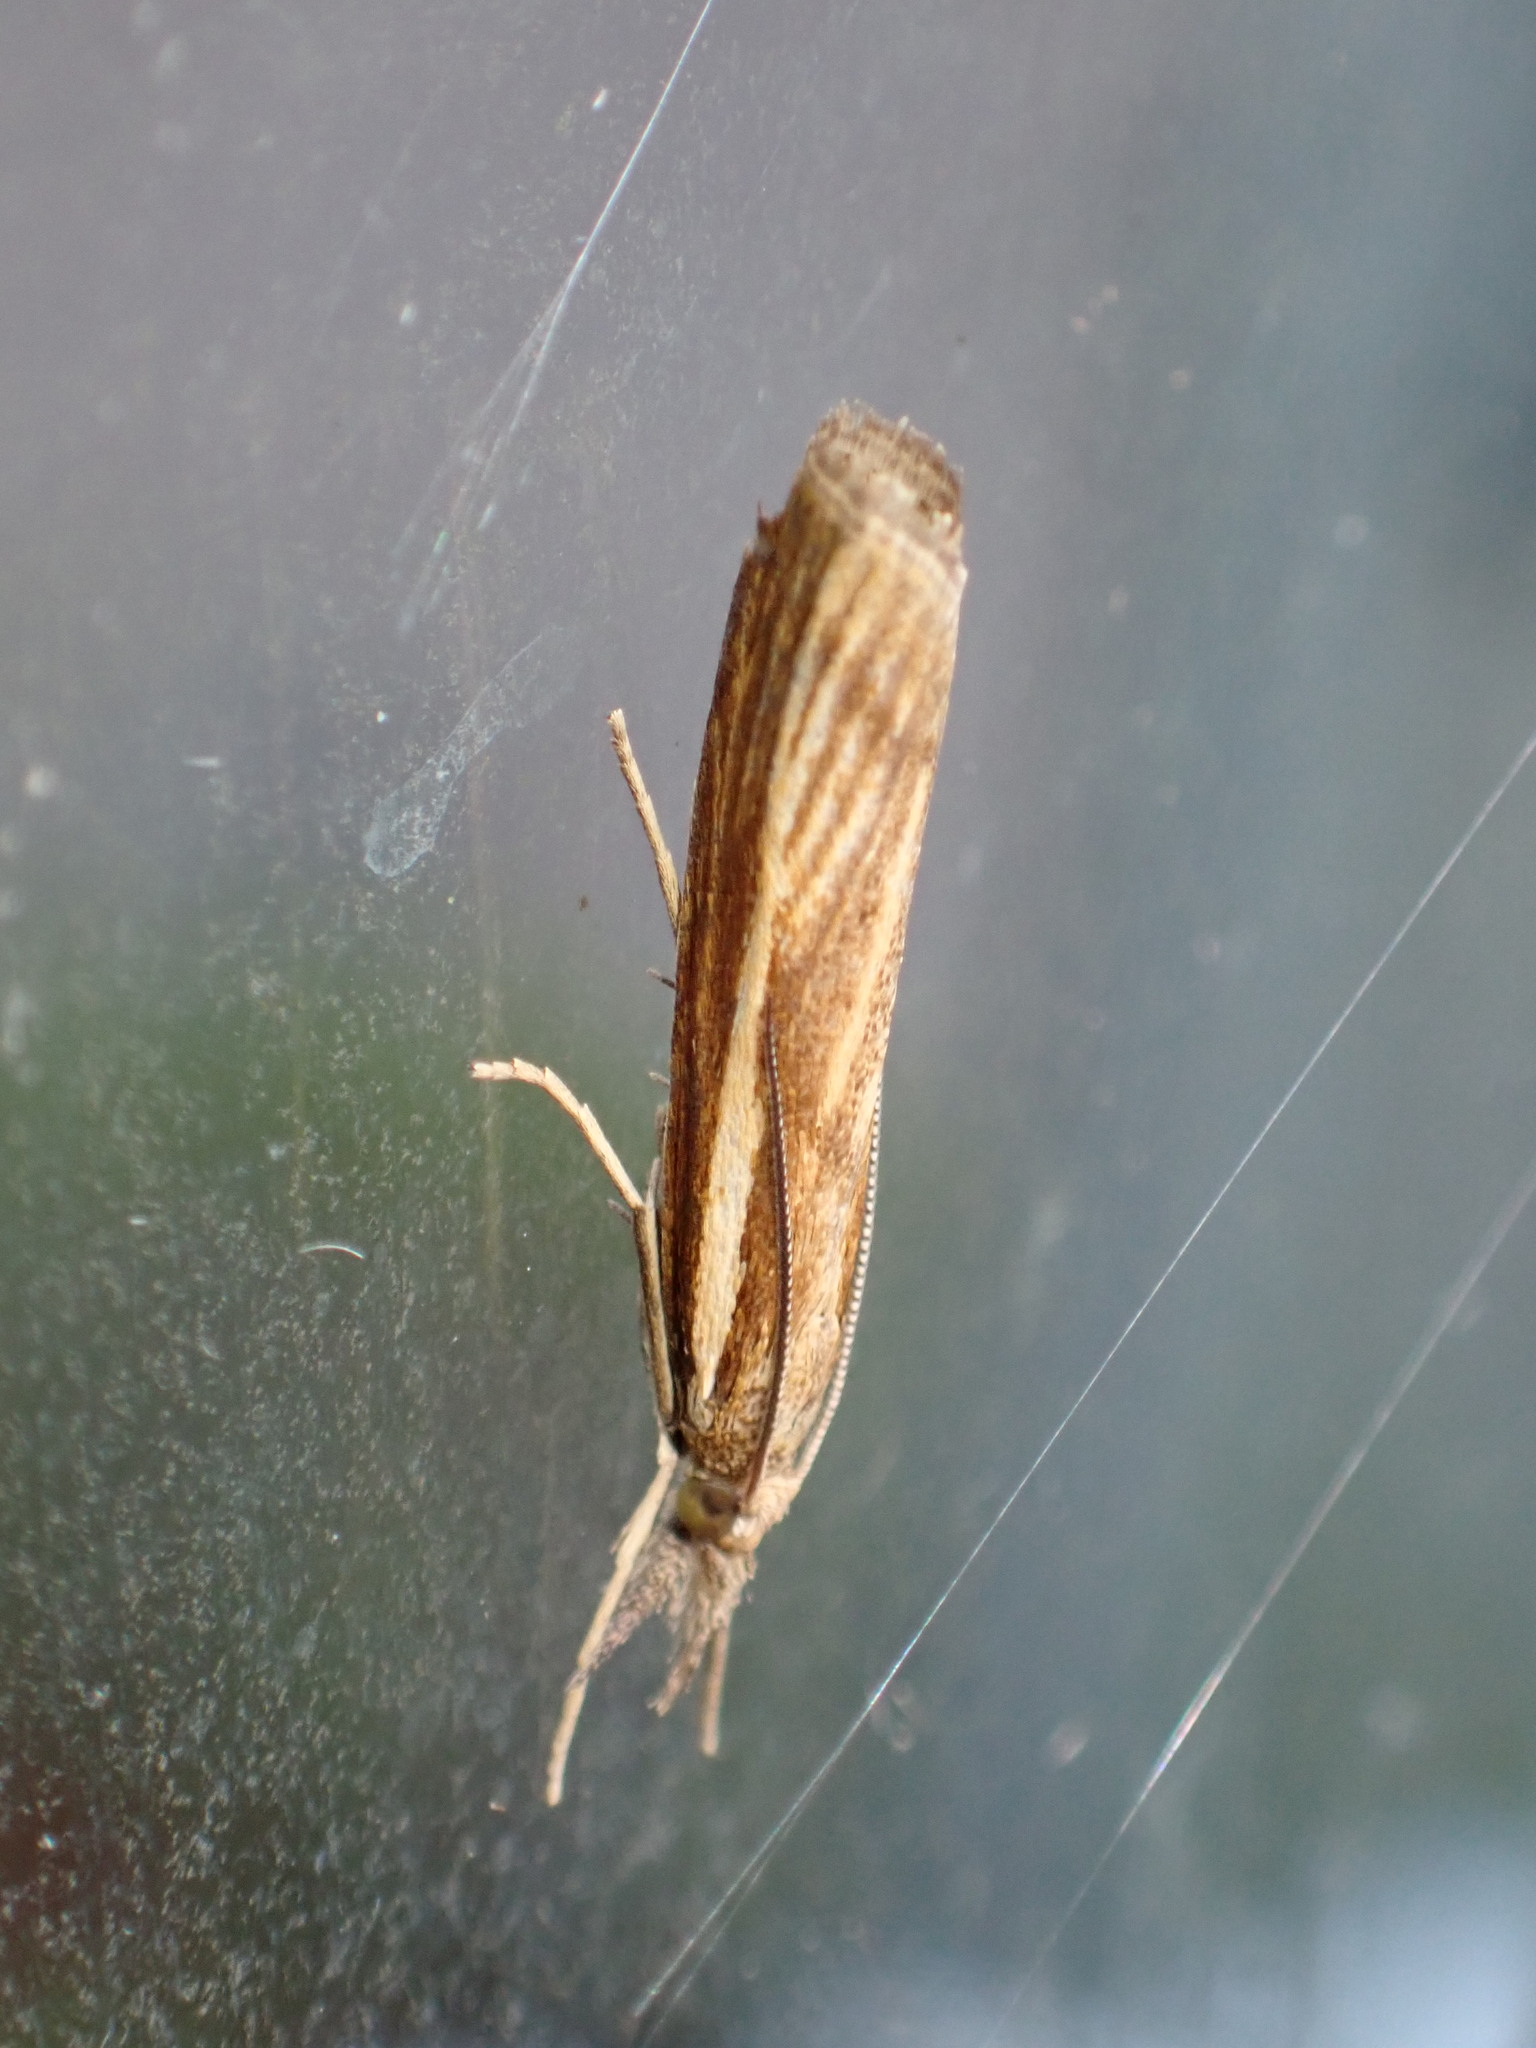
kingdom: Animalia
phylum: Arthropoda
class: Insecta
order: Lepidoptera
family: Crambidae
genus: Agriphila
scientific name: Agriphila tristellus
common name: Common grass-veneer
